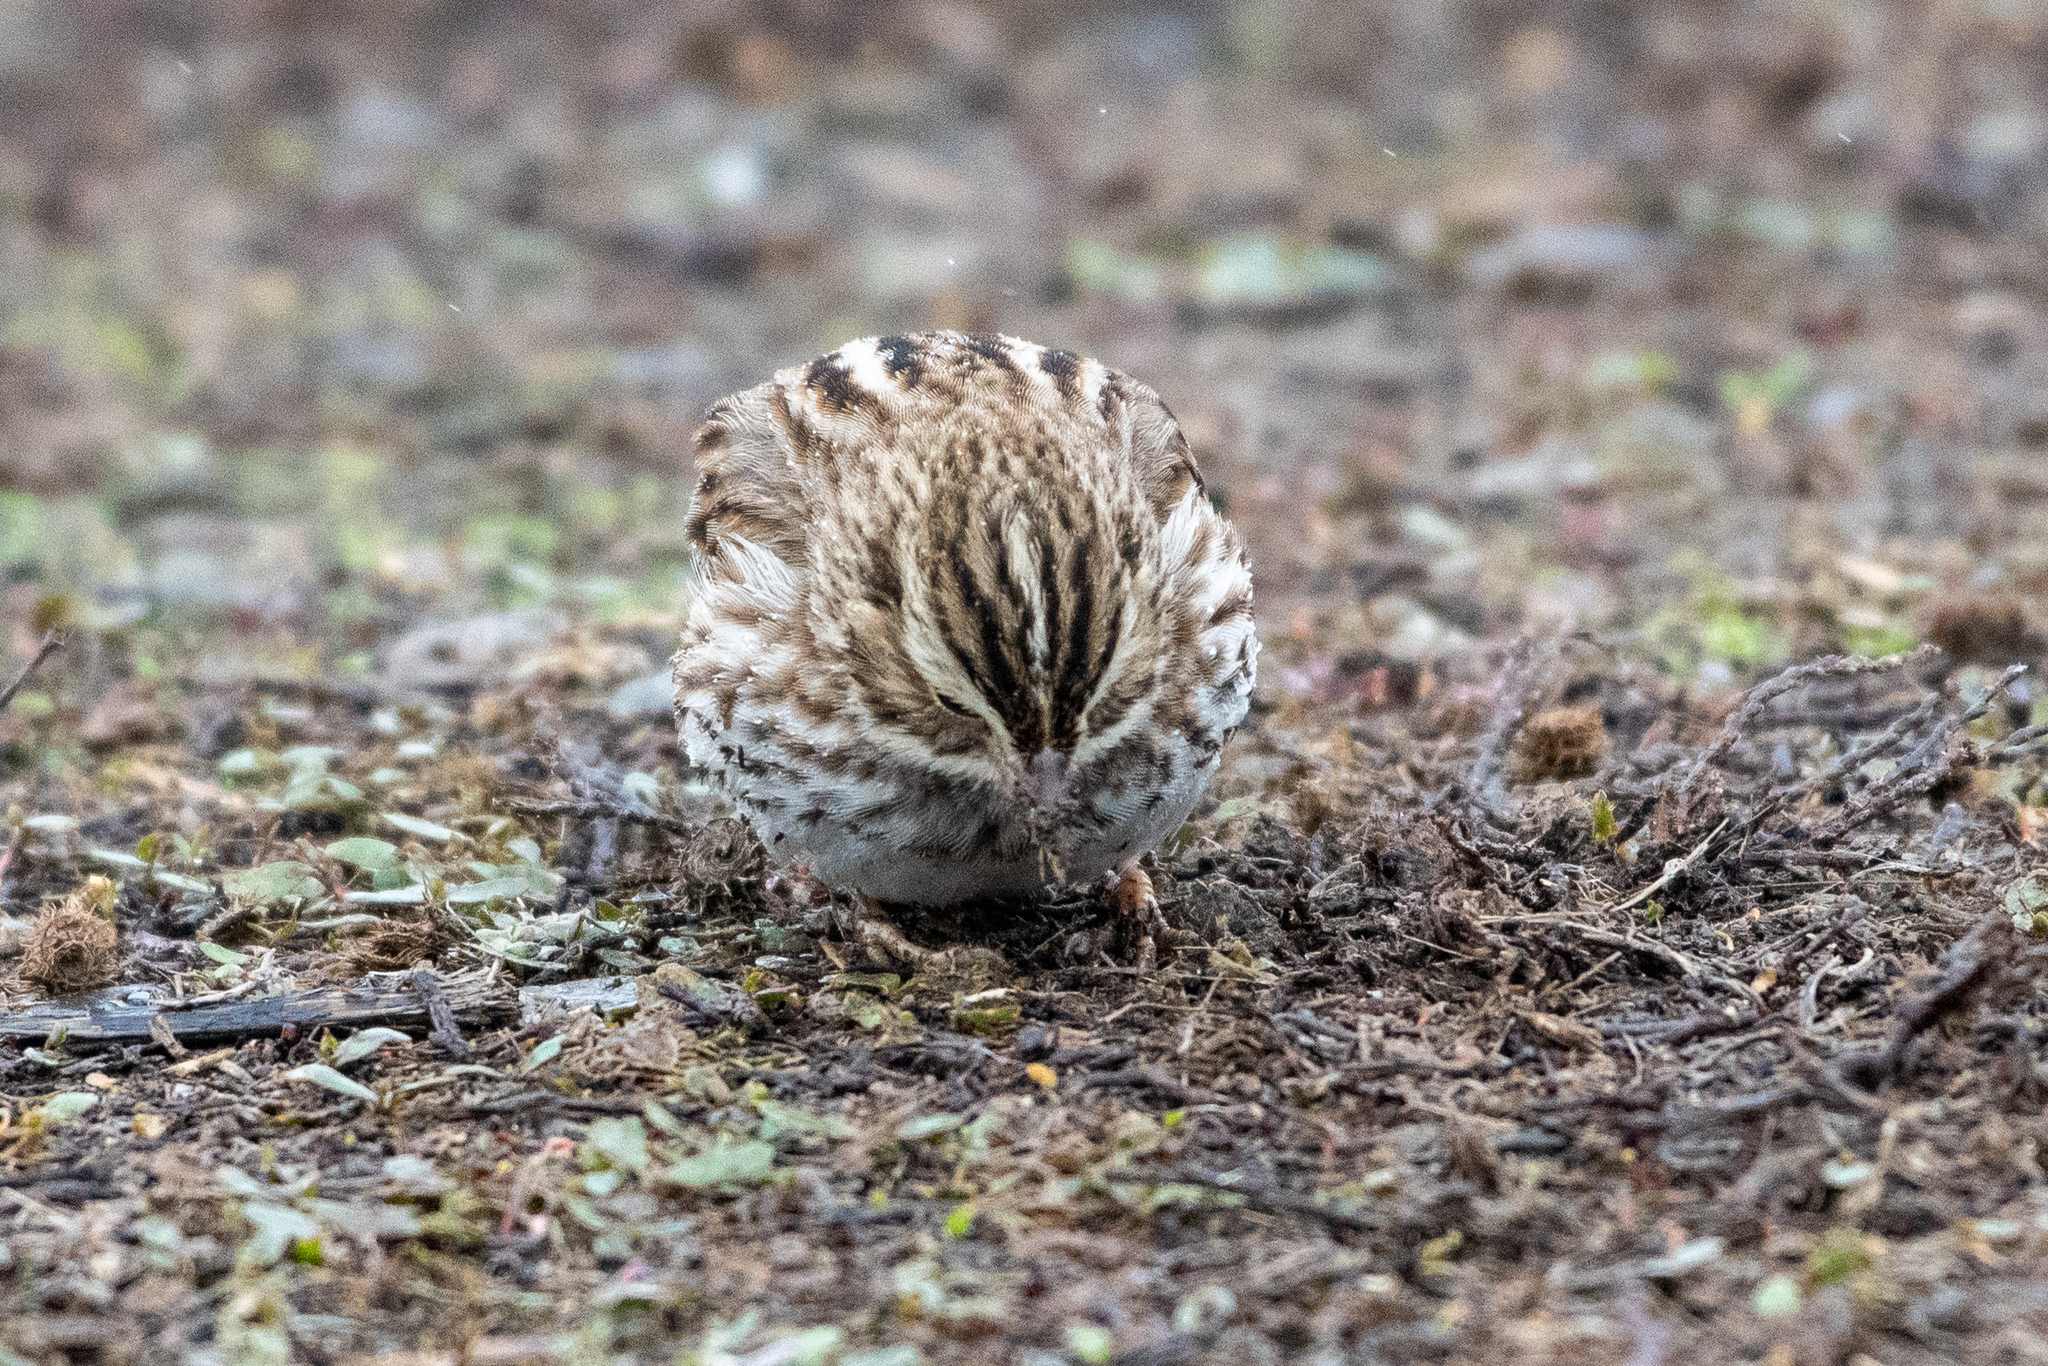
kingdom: Animalia
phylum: Chordata
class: Aves
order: Passeriformes
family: Passerellidae
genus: Passerculus
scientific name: Passerculus sandwichensis
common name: Savannah sparrow
